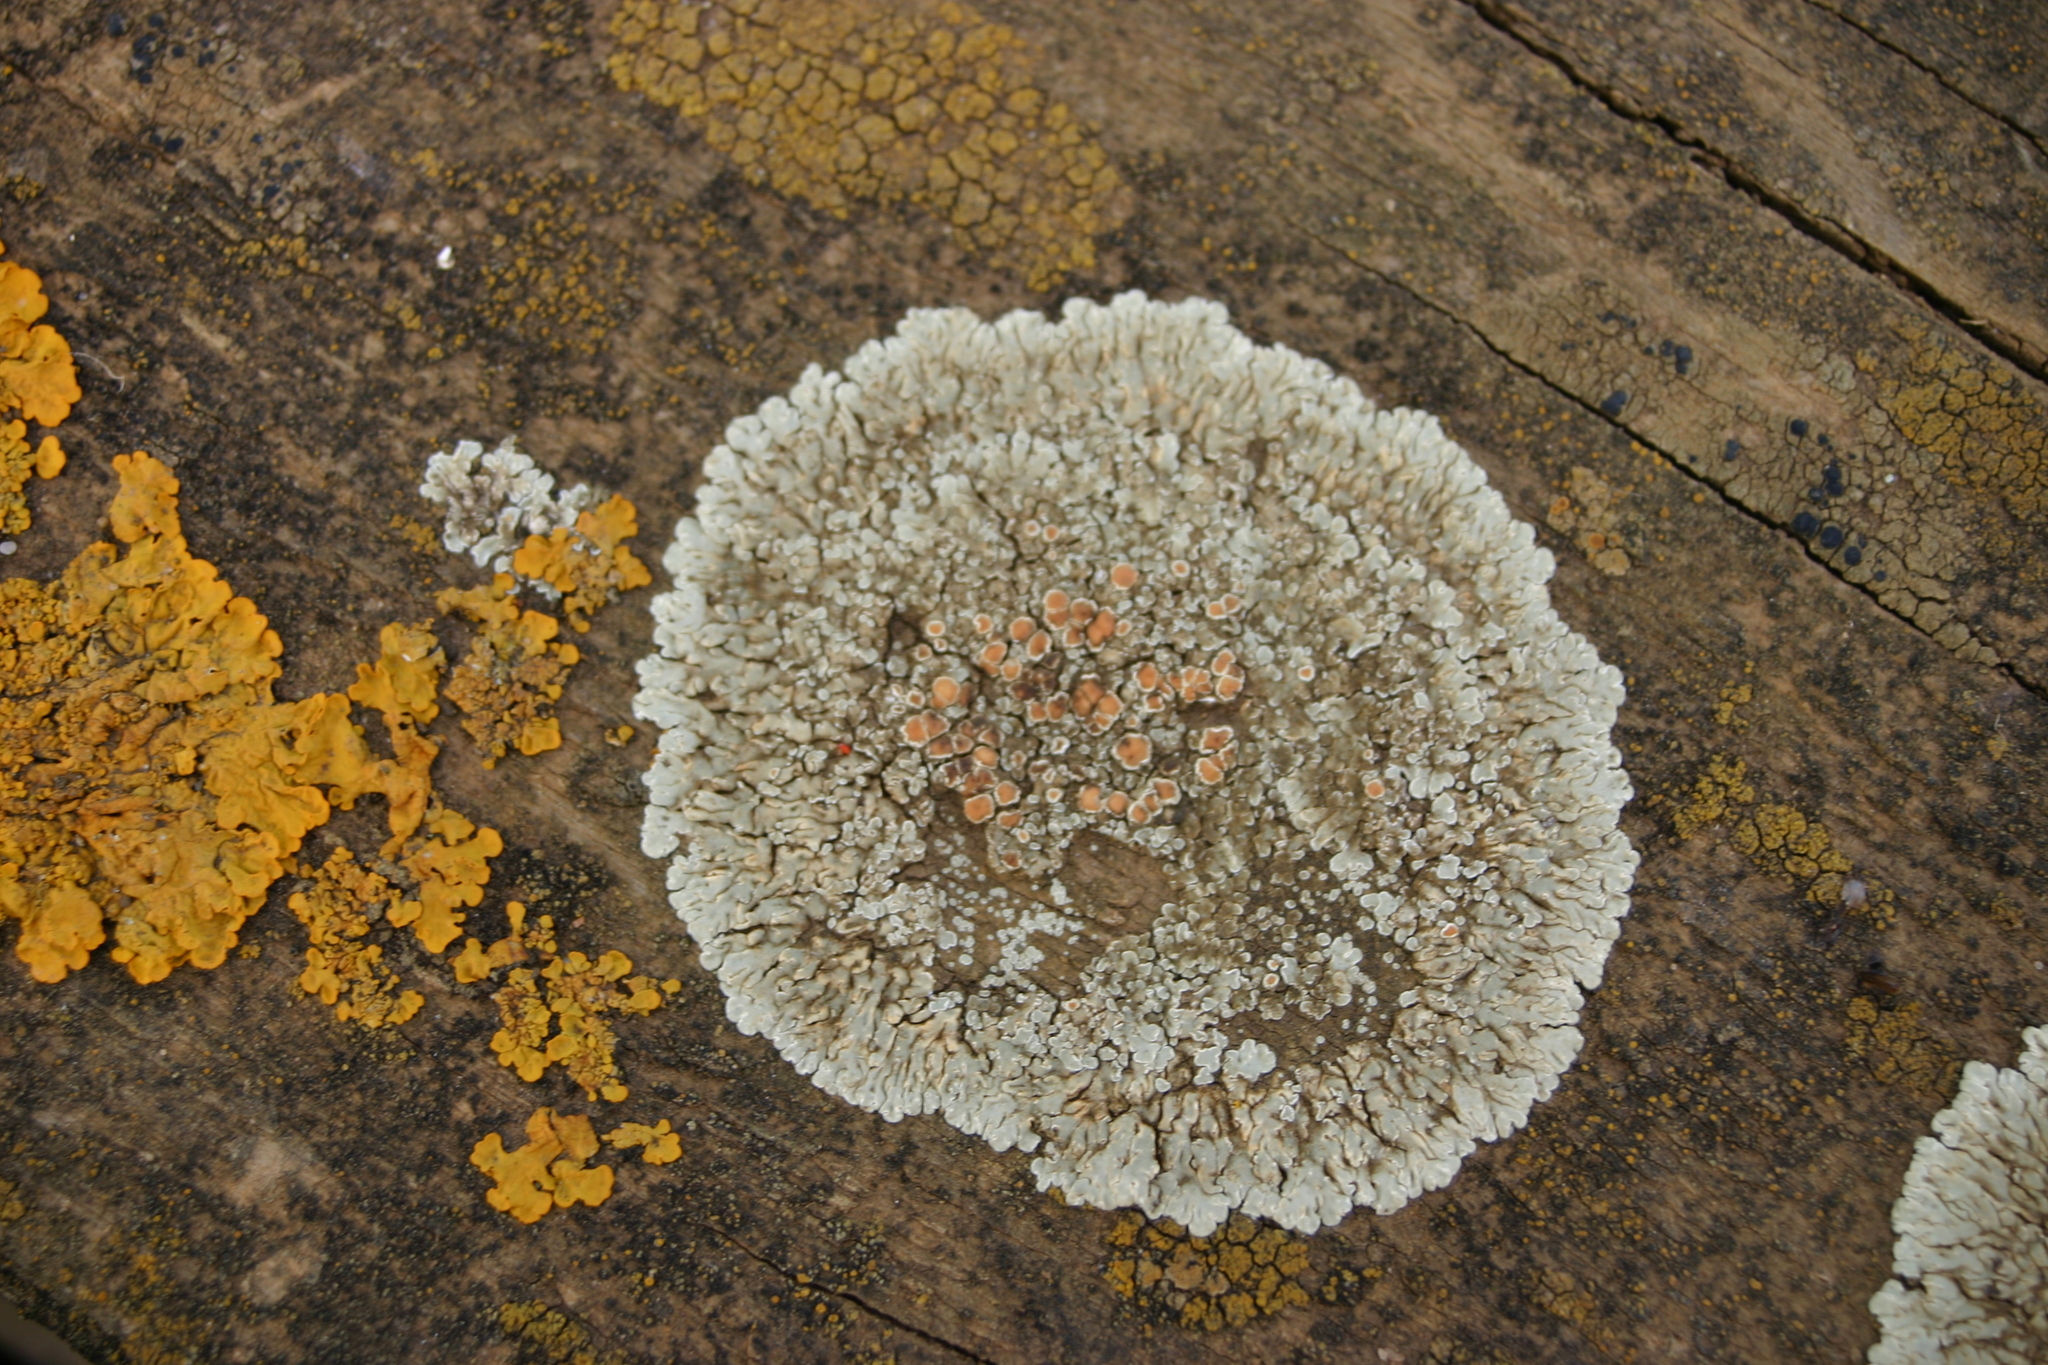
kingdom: Fungi
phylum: Ascomycota
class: Lecanoromycetes
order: Lecanorales
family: Lecanoraceae
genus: Protoparmeliopsis
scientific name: Protoparmeliopsis muralis
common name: Stonewall rim lichen
